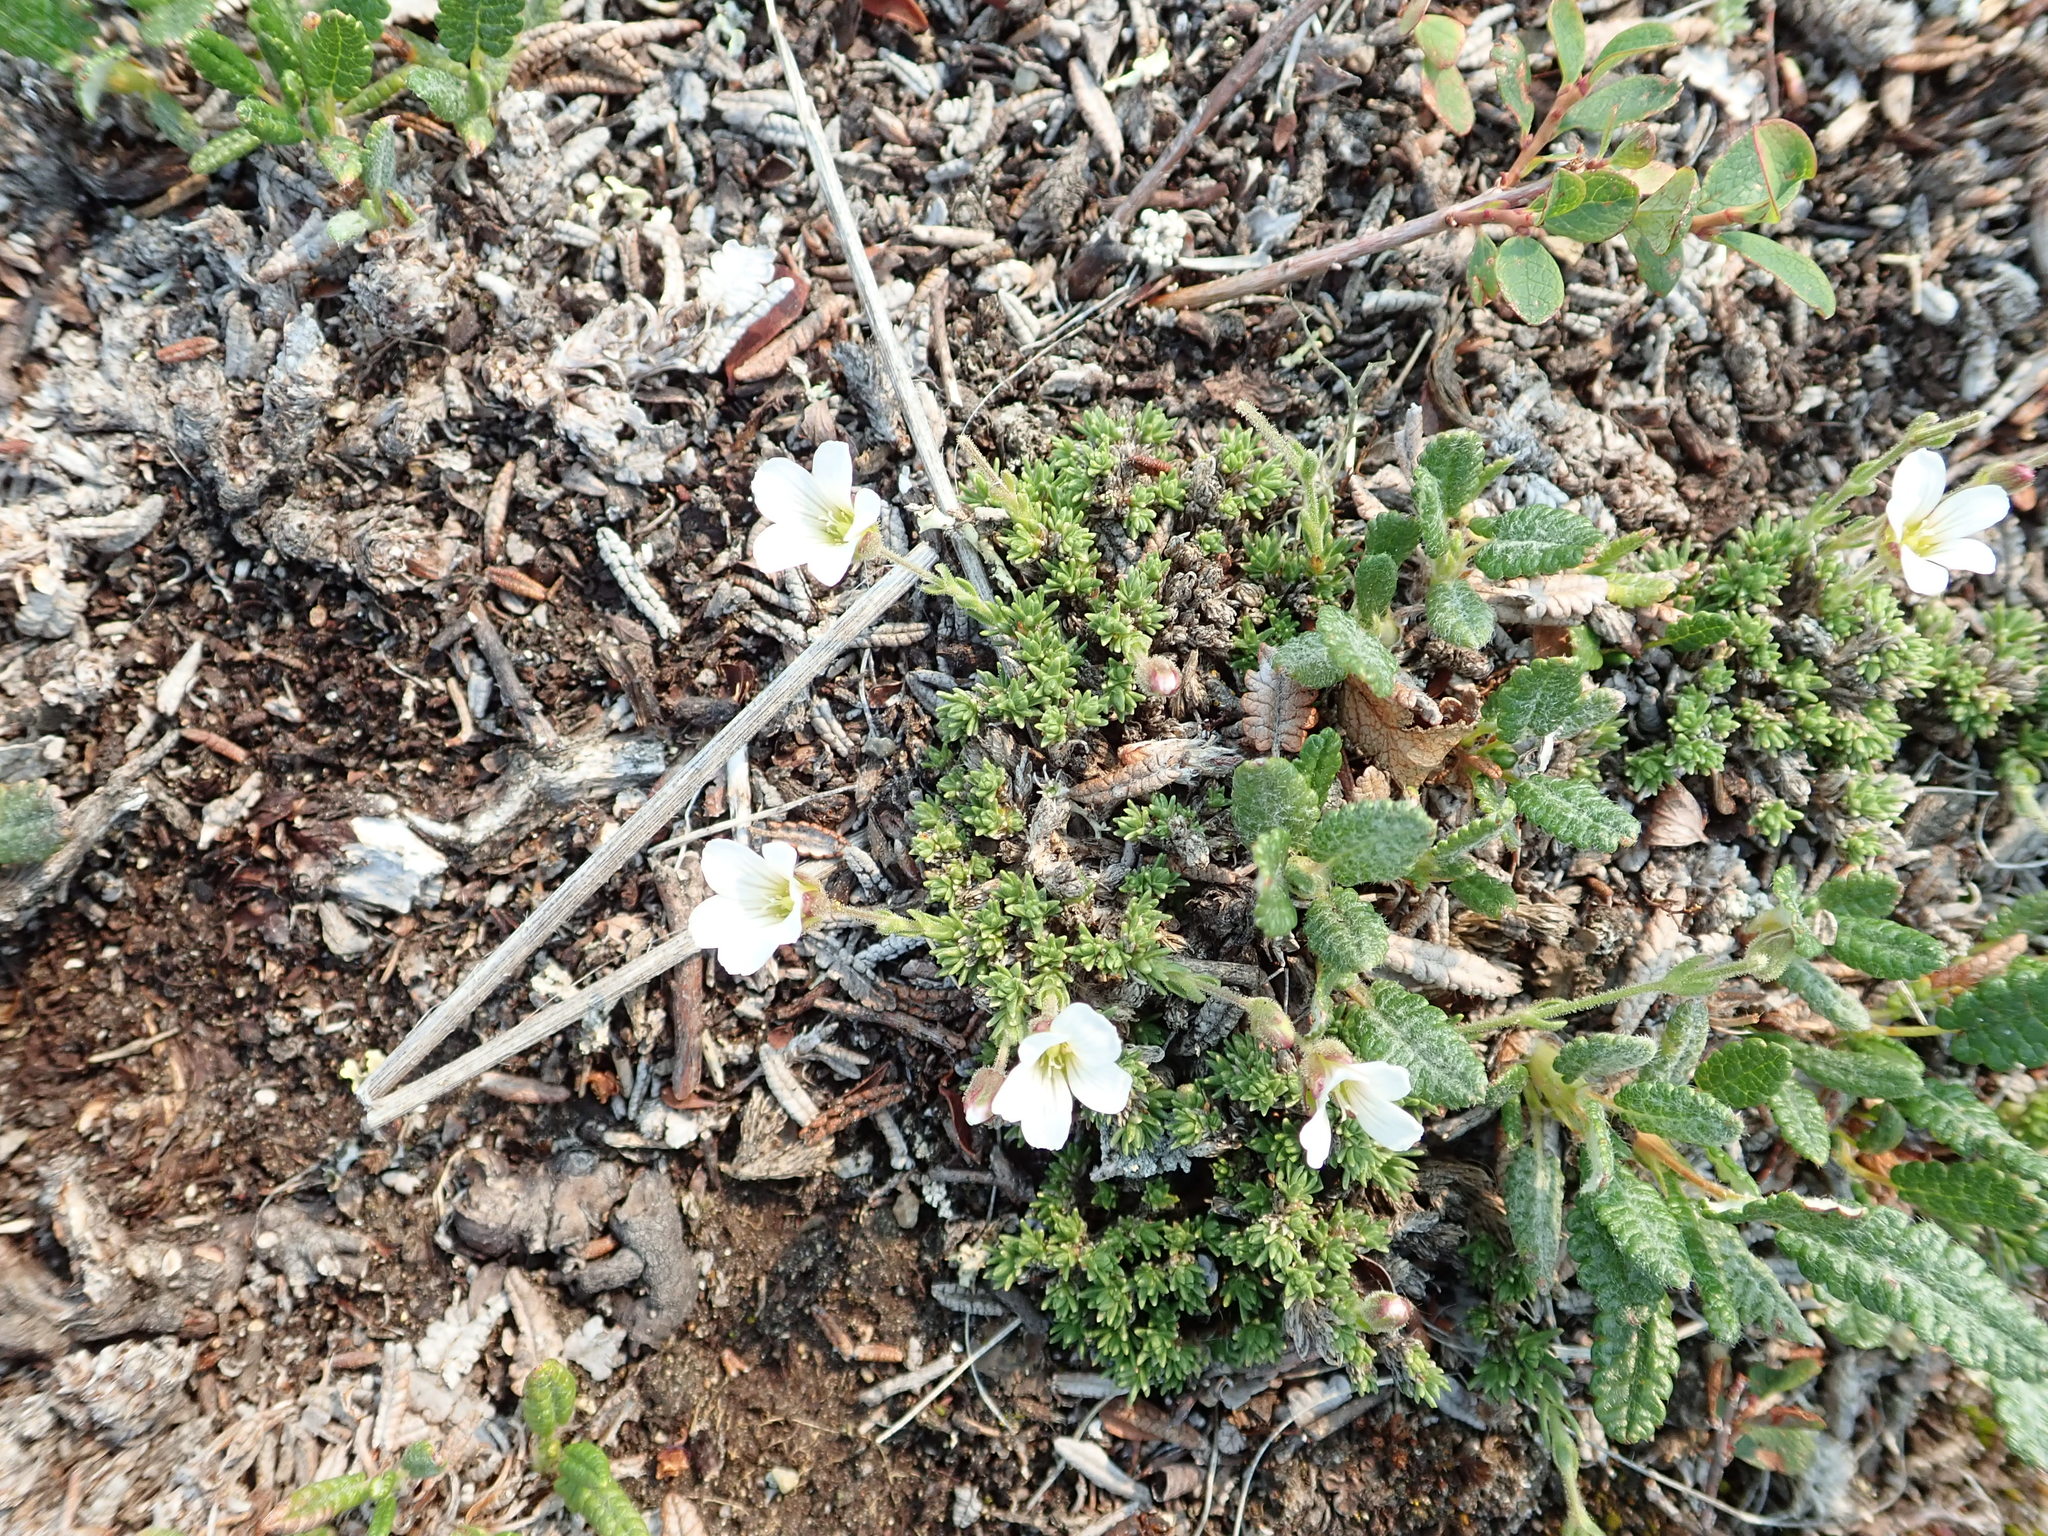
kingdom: Plantae
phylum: Tracheophyta
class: Magnoliopsida
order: Caryophyllales
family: Caryophyllaceae
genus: Cherleria
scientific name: Cherleria obtusiloba
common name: Alpine stitchwort
